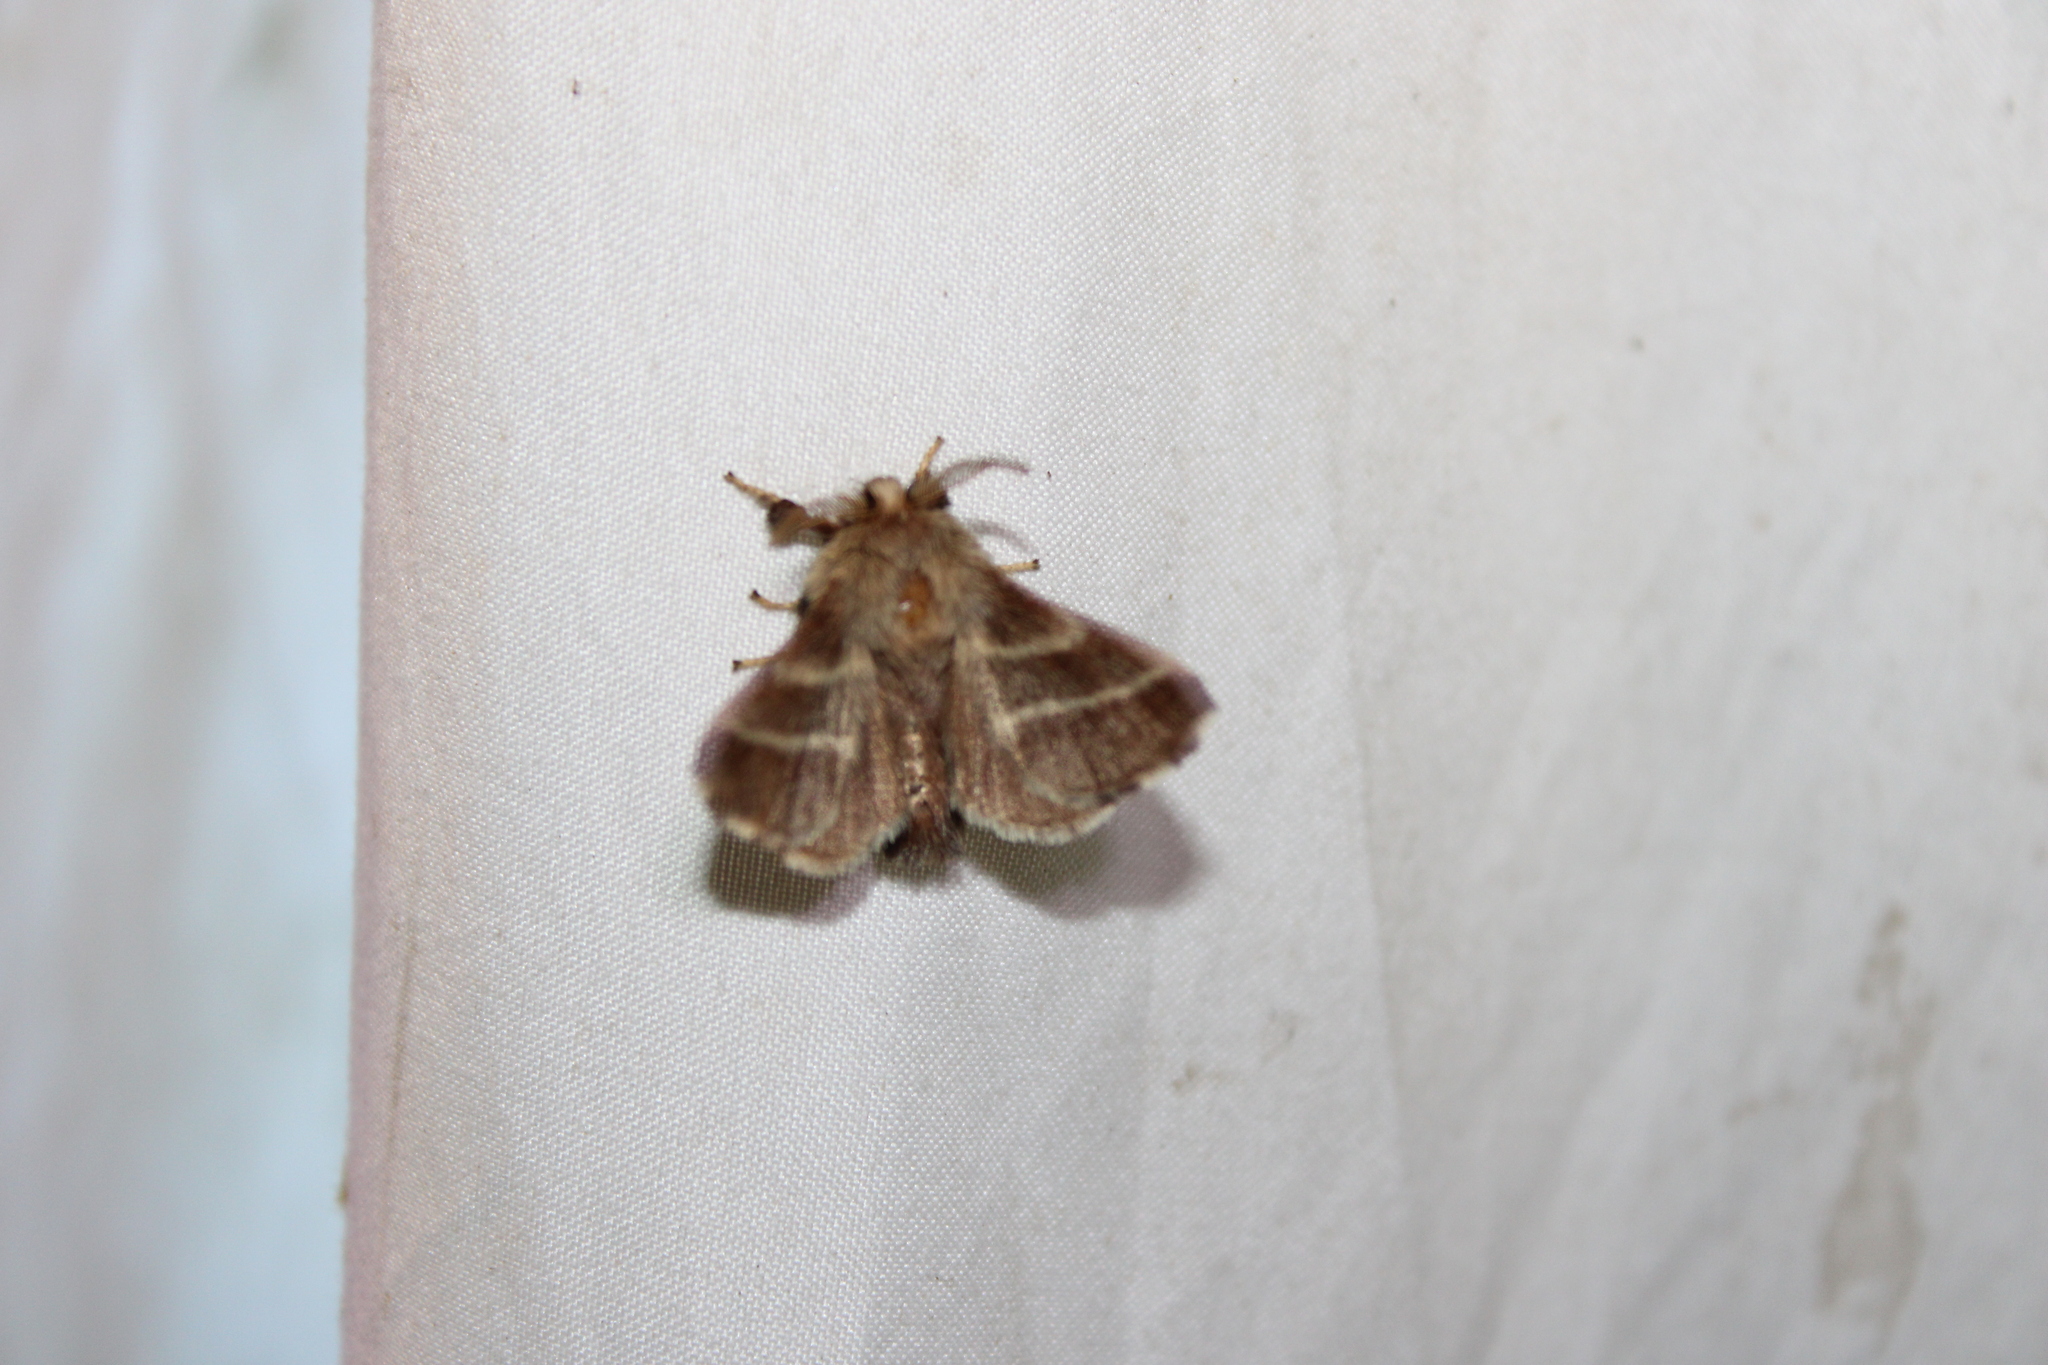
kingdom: Animalia
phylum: Arthropoda
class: Insecta
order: Lepidoptera
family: Lasiocampidae
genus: Malacosoma
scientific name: Malacosoma americana
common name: Eastern tent caterpillar moth
